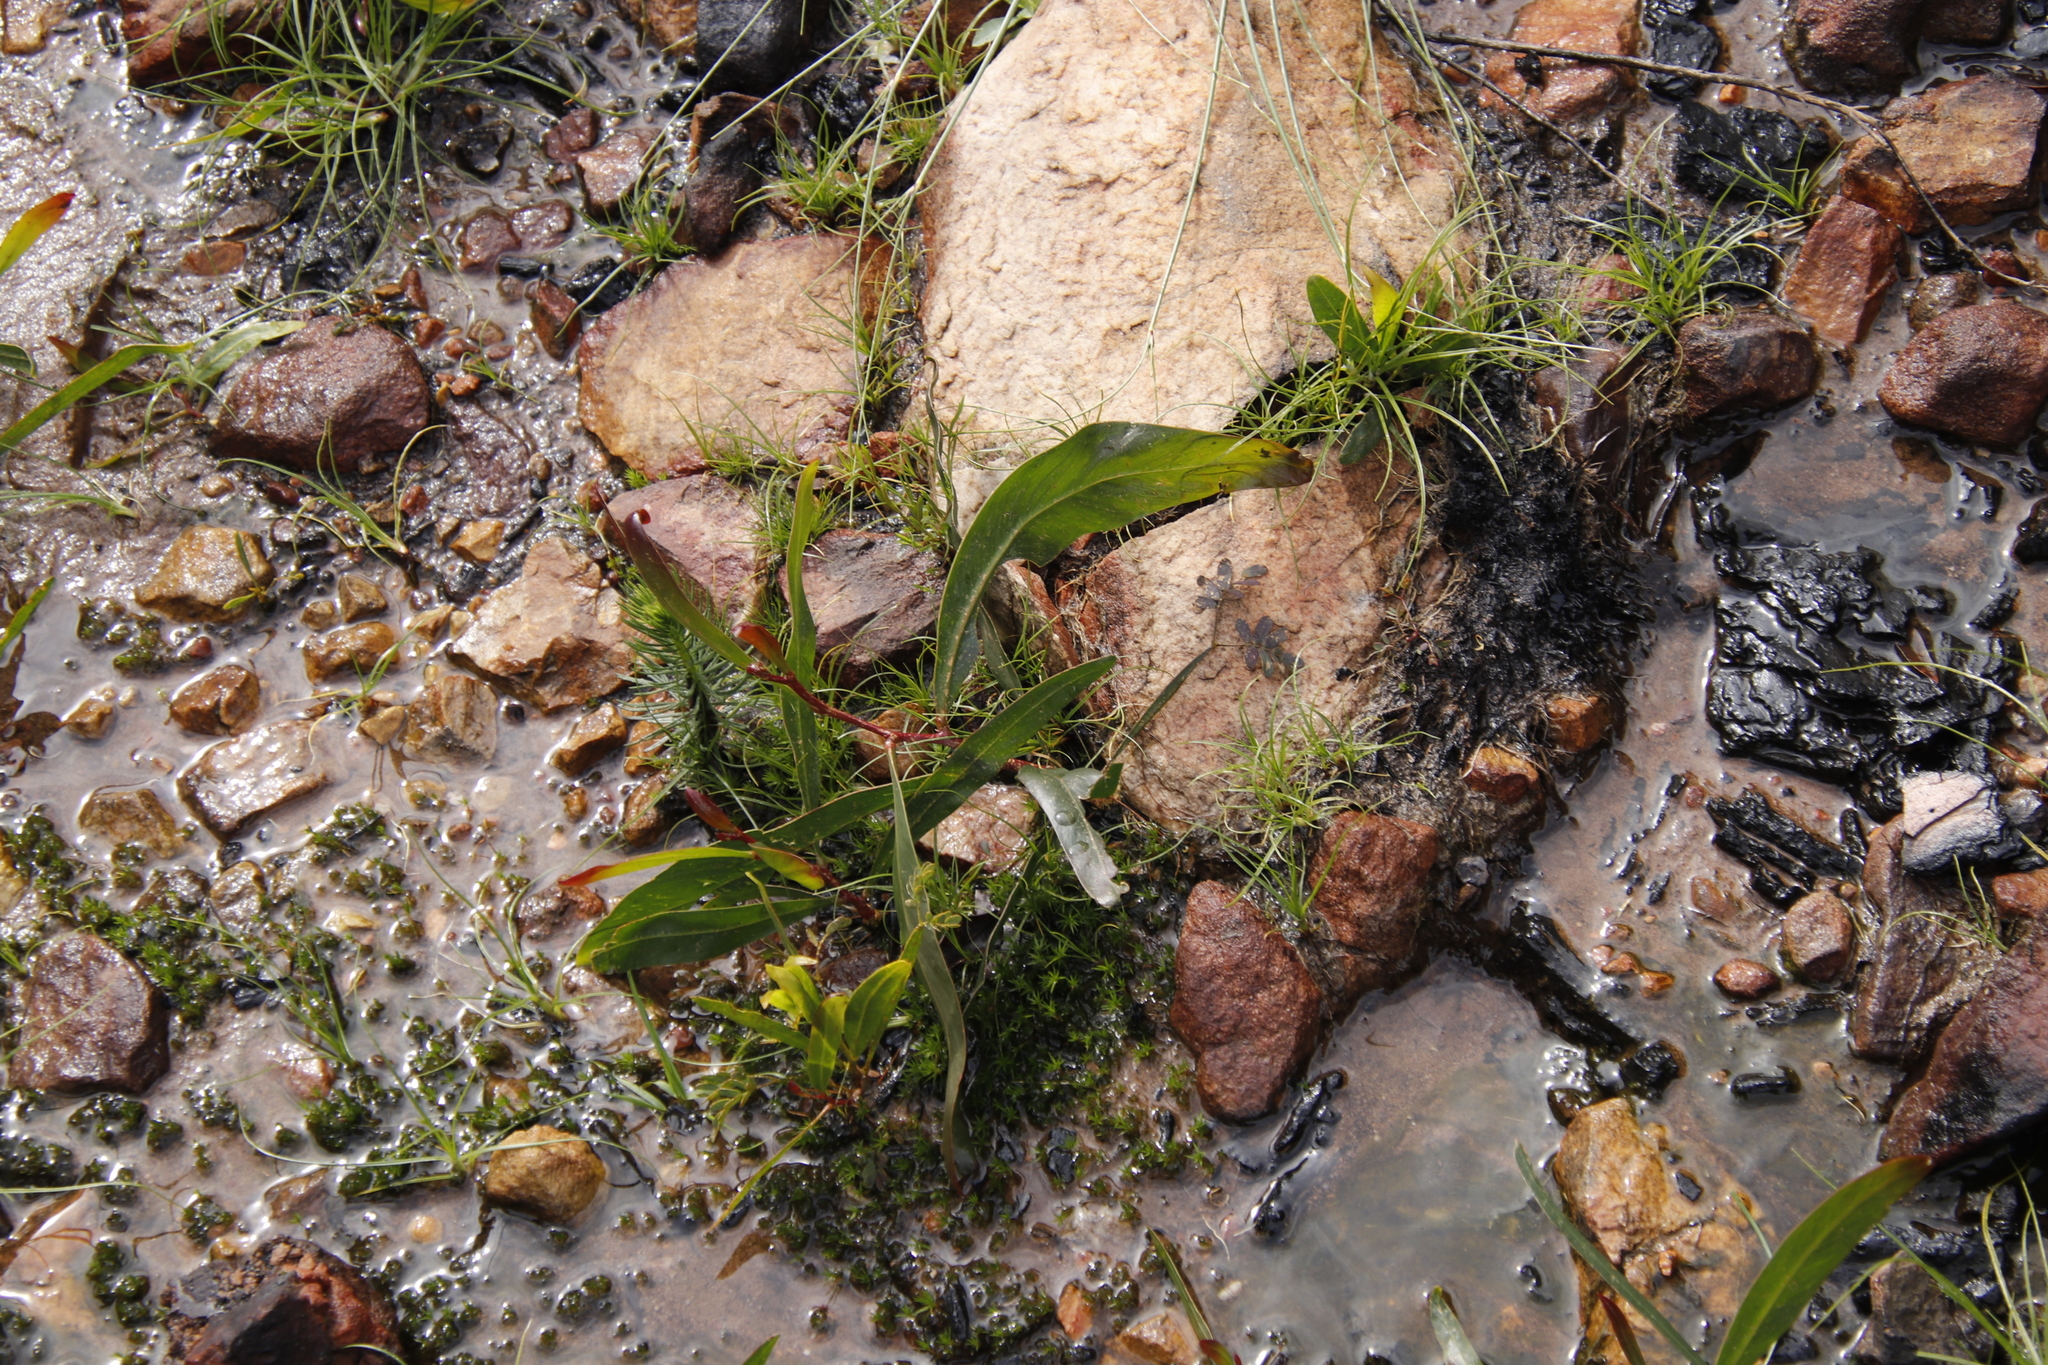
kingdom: Plantae
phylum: Tracheophyta
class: Magnoliopsida
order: Fabales
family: Fabaceae
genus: Acacia
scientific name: Acacia saligna
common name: Orange wattle
